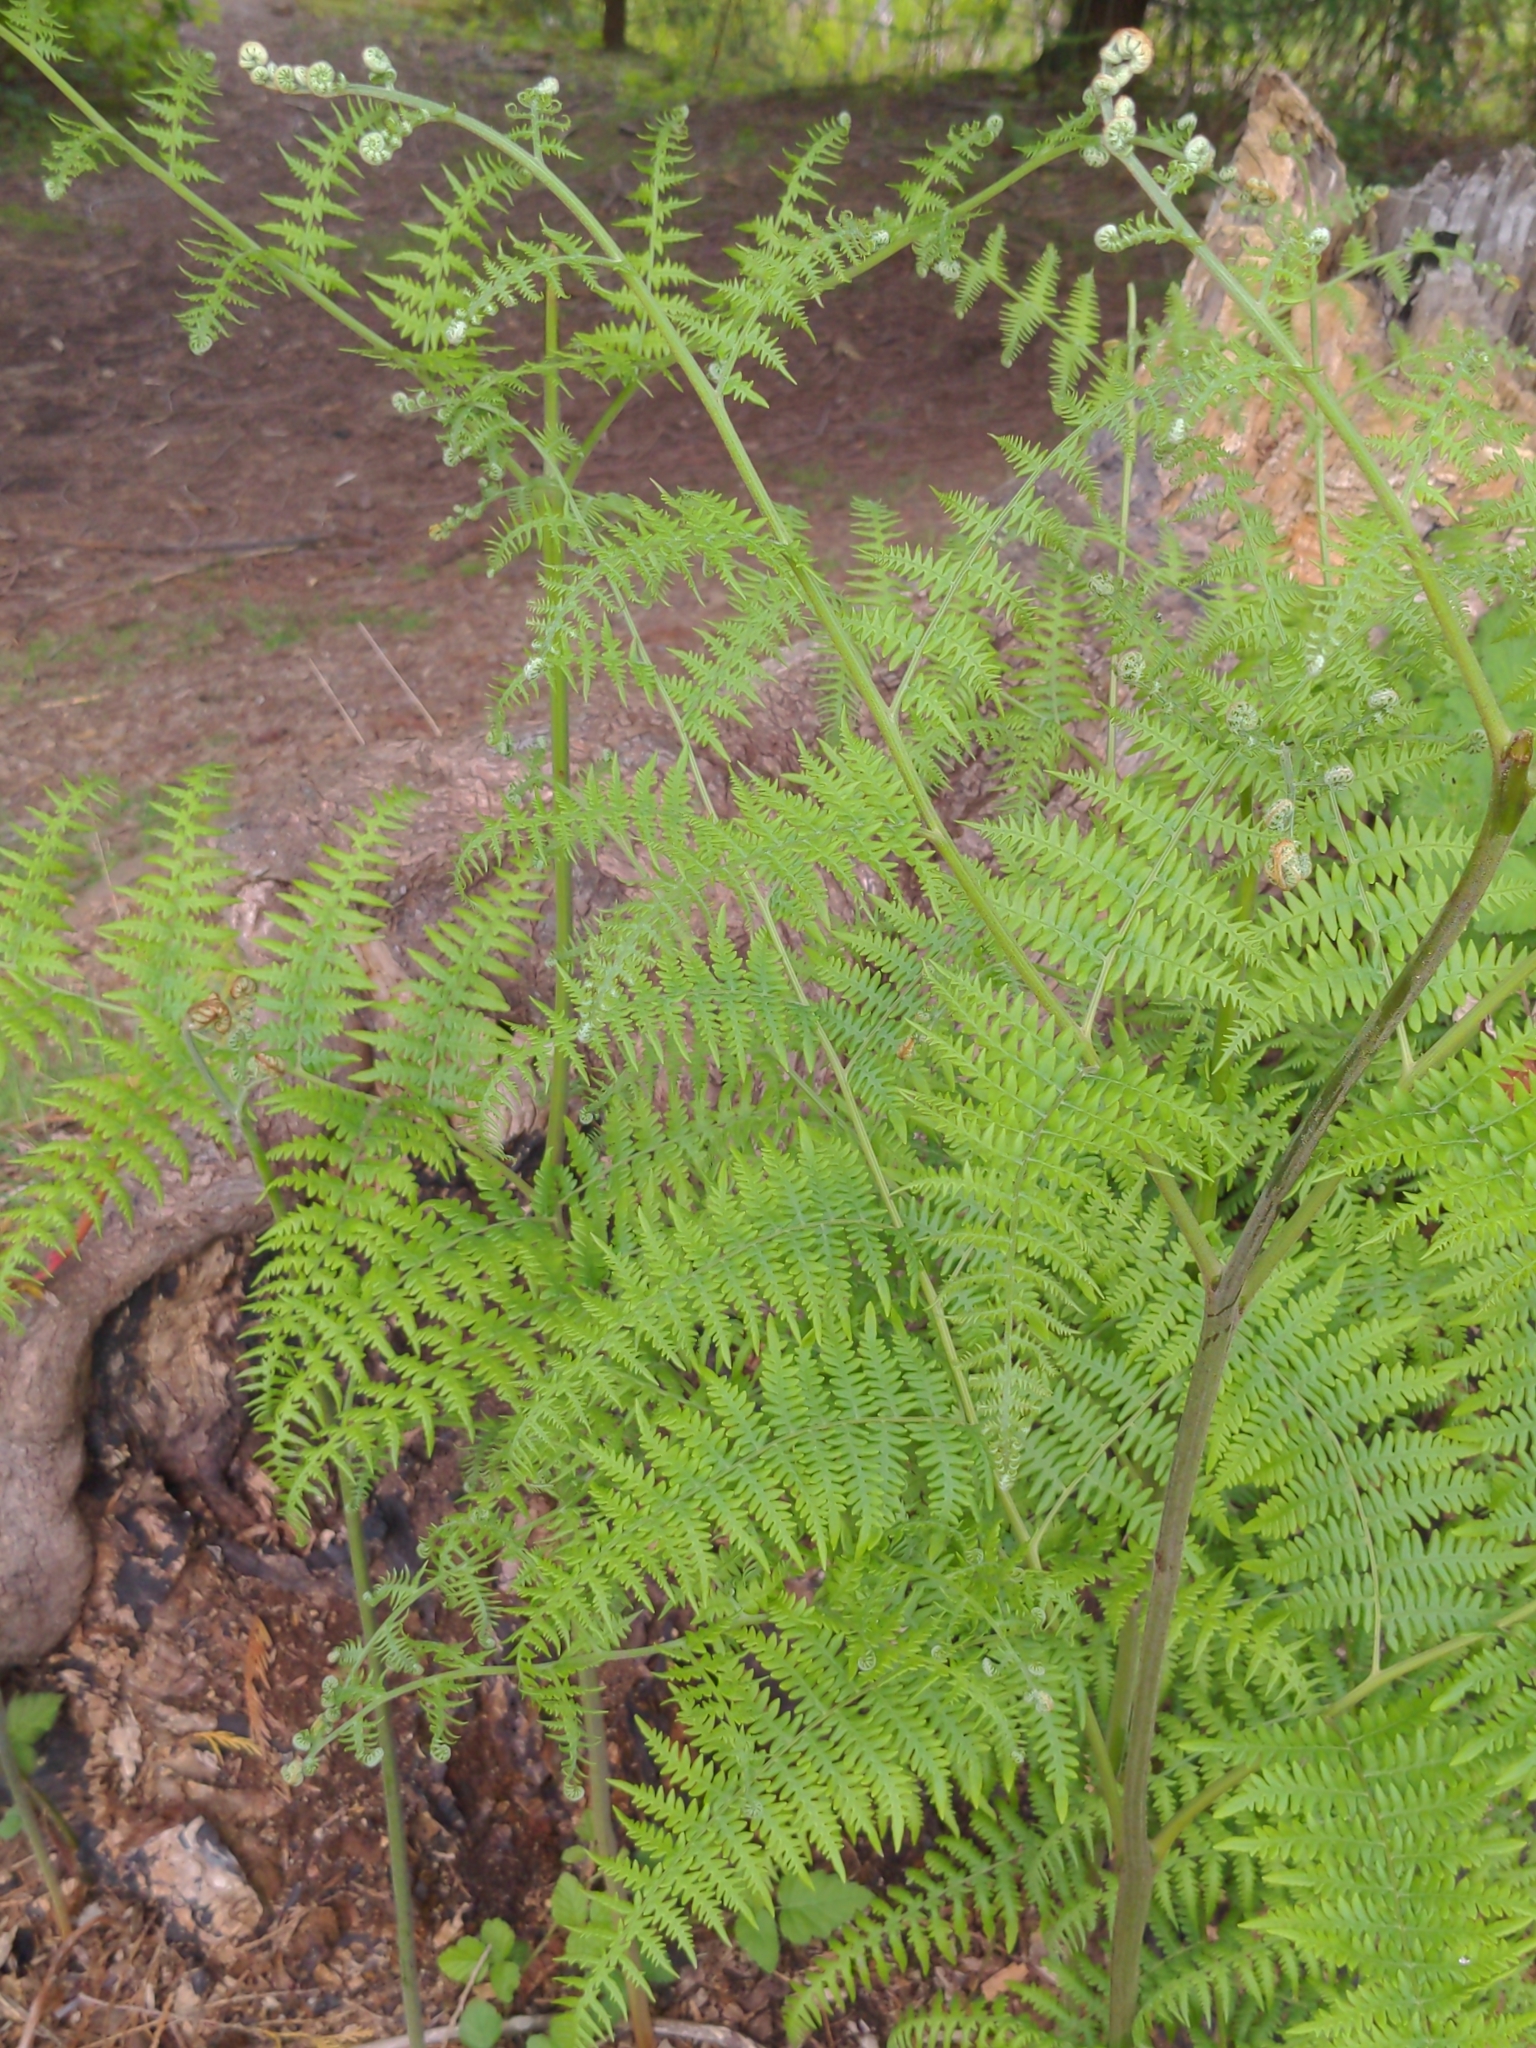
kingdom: Plantae
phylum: Tracheophyta
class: Polypodiopsida
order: Polypodiales
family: Dennstaedtiaceae
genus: Pteridium
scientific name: Pteridium aquilinum
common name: Bracken
